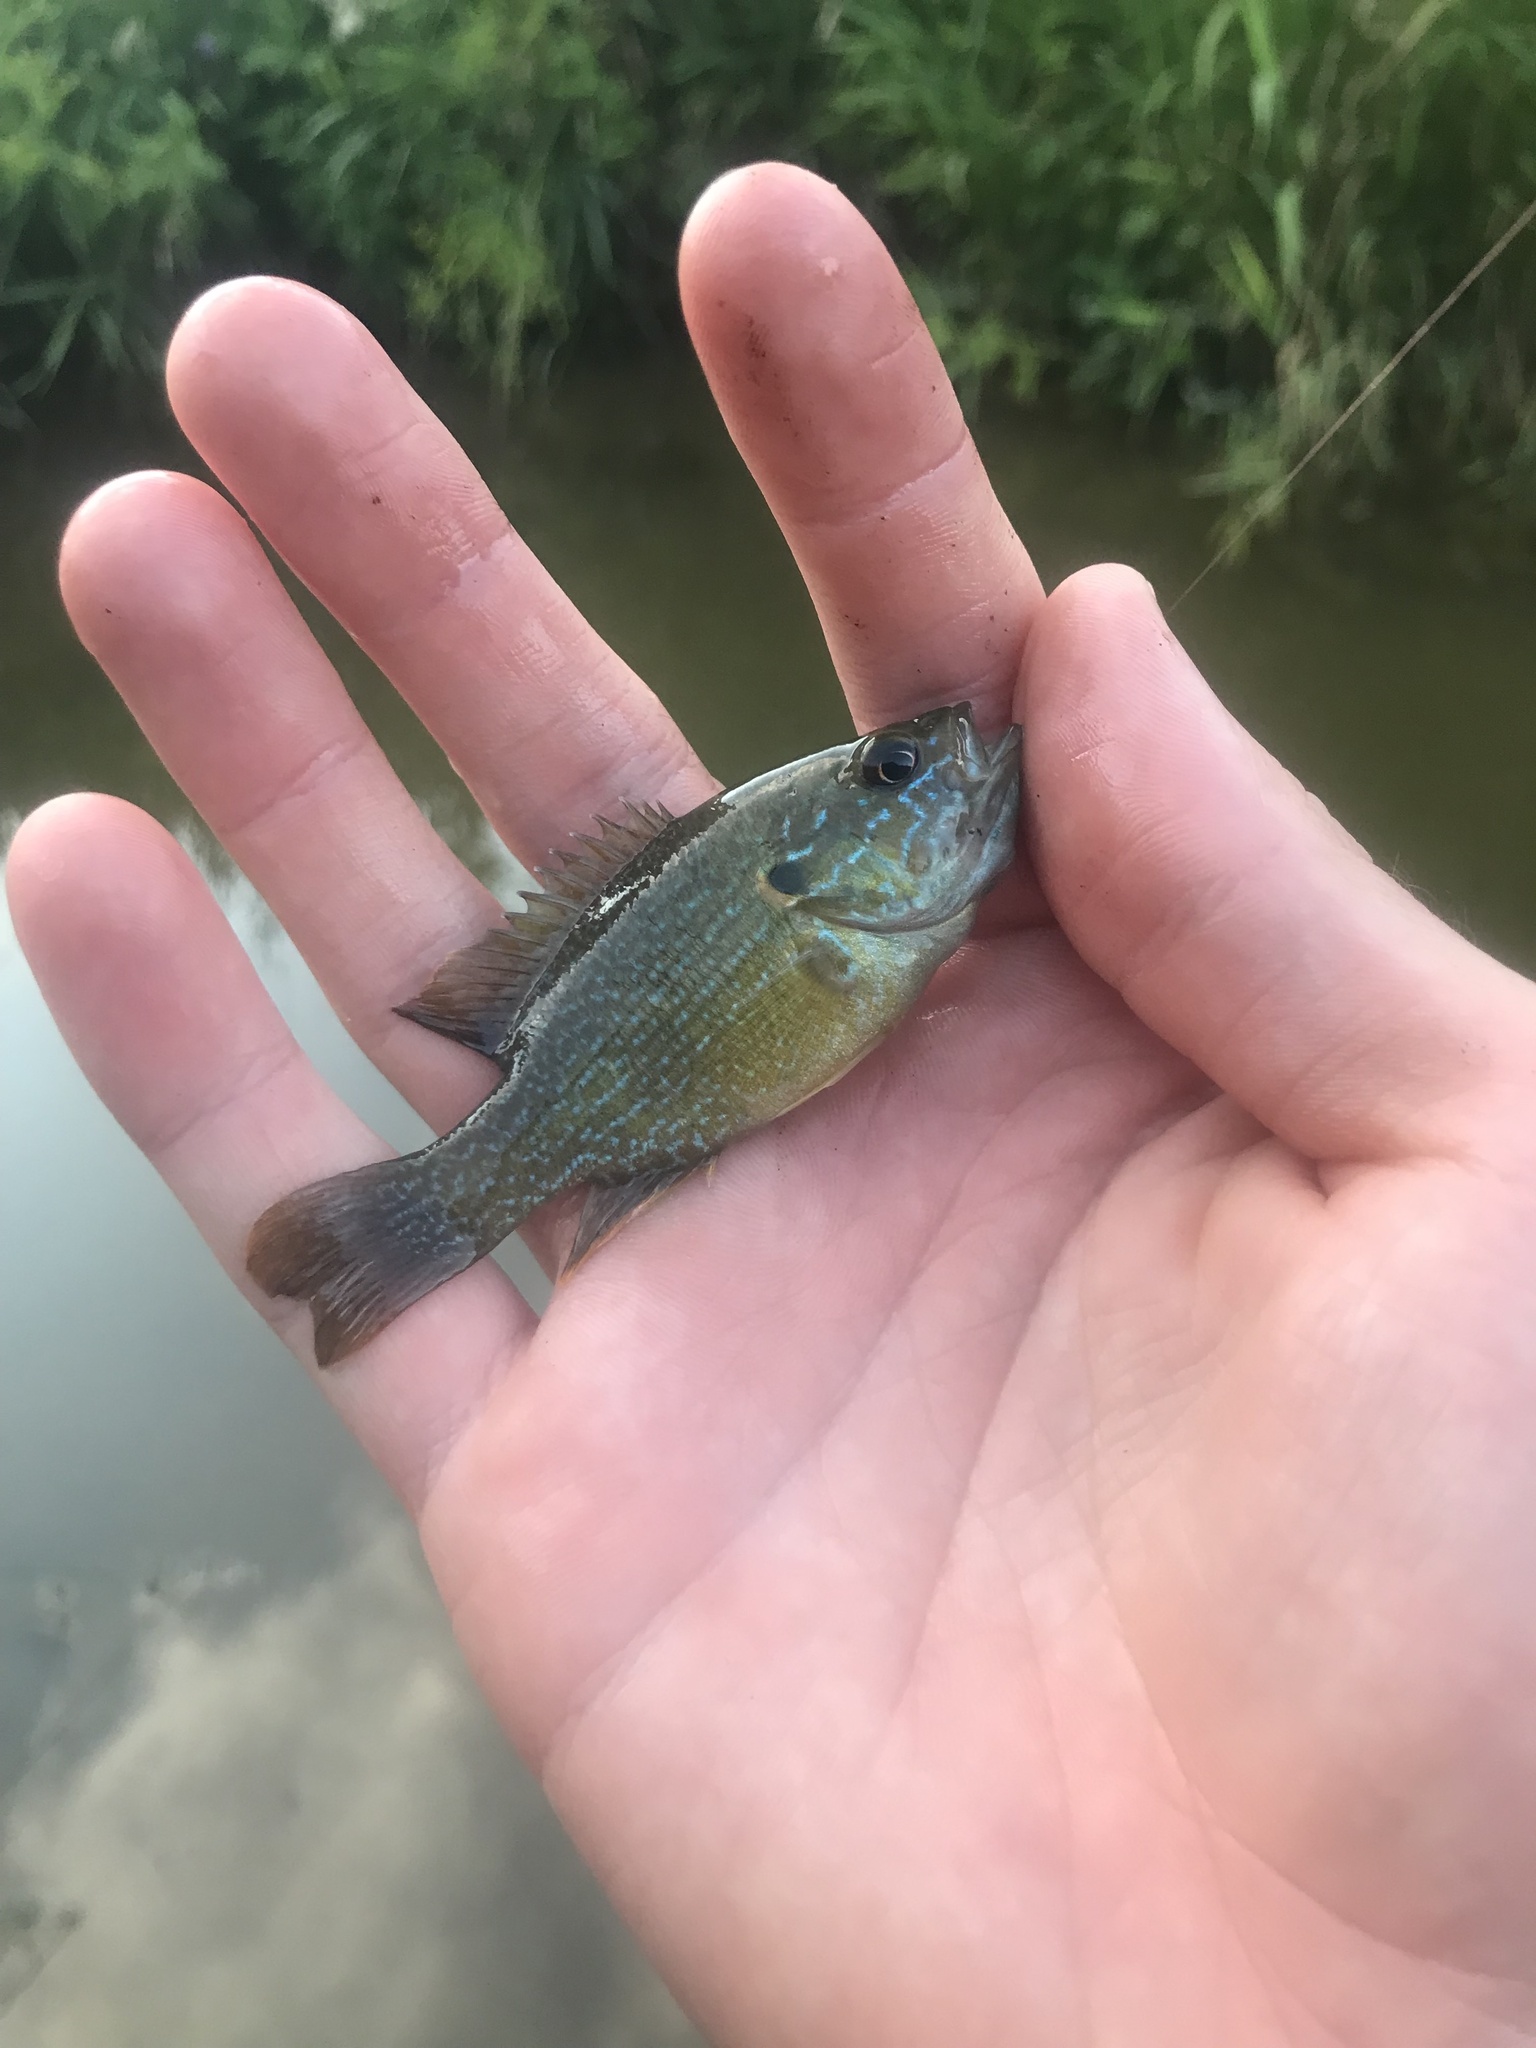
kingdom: Animalia
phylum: Chordata
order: Perciformes
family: Centrarchidae
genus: Lepomis
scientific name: Lepomis cyanellus
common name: Green sunfish
